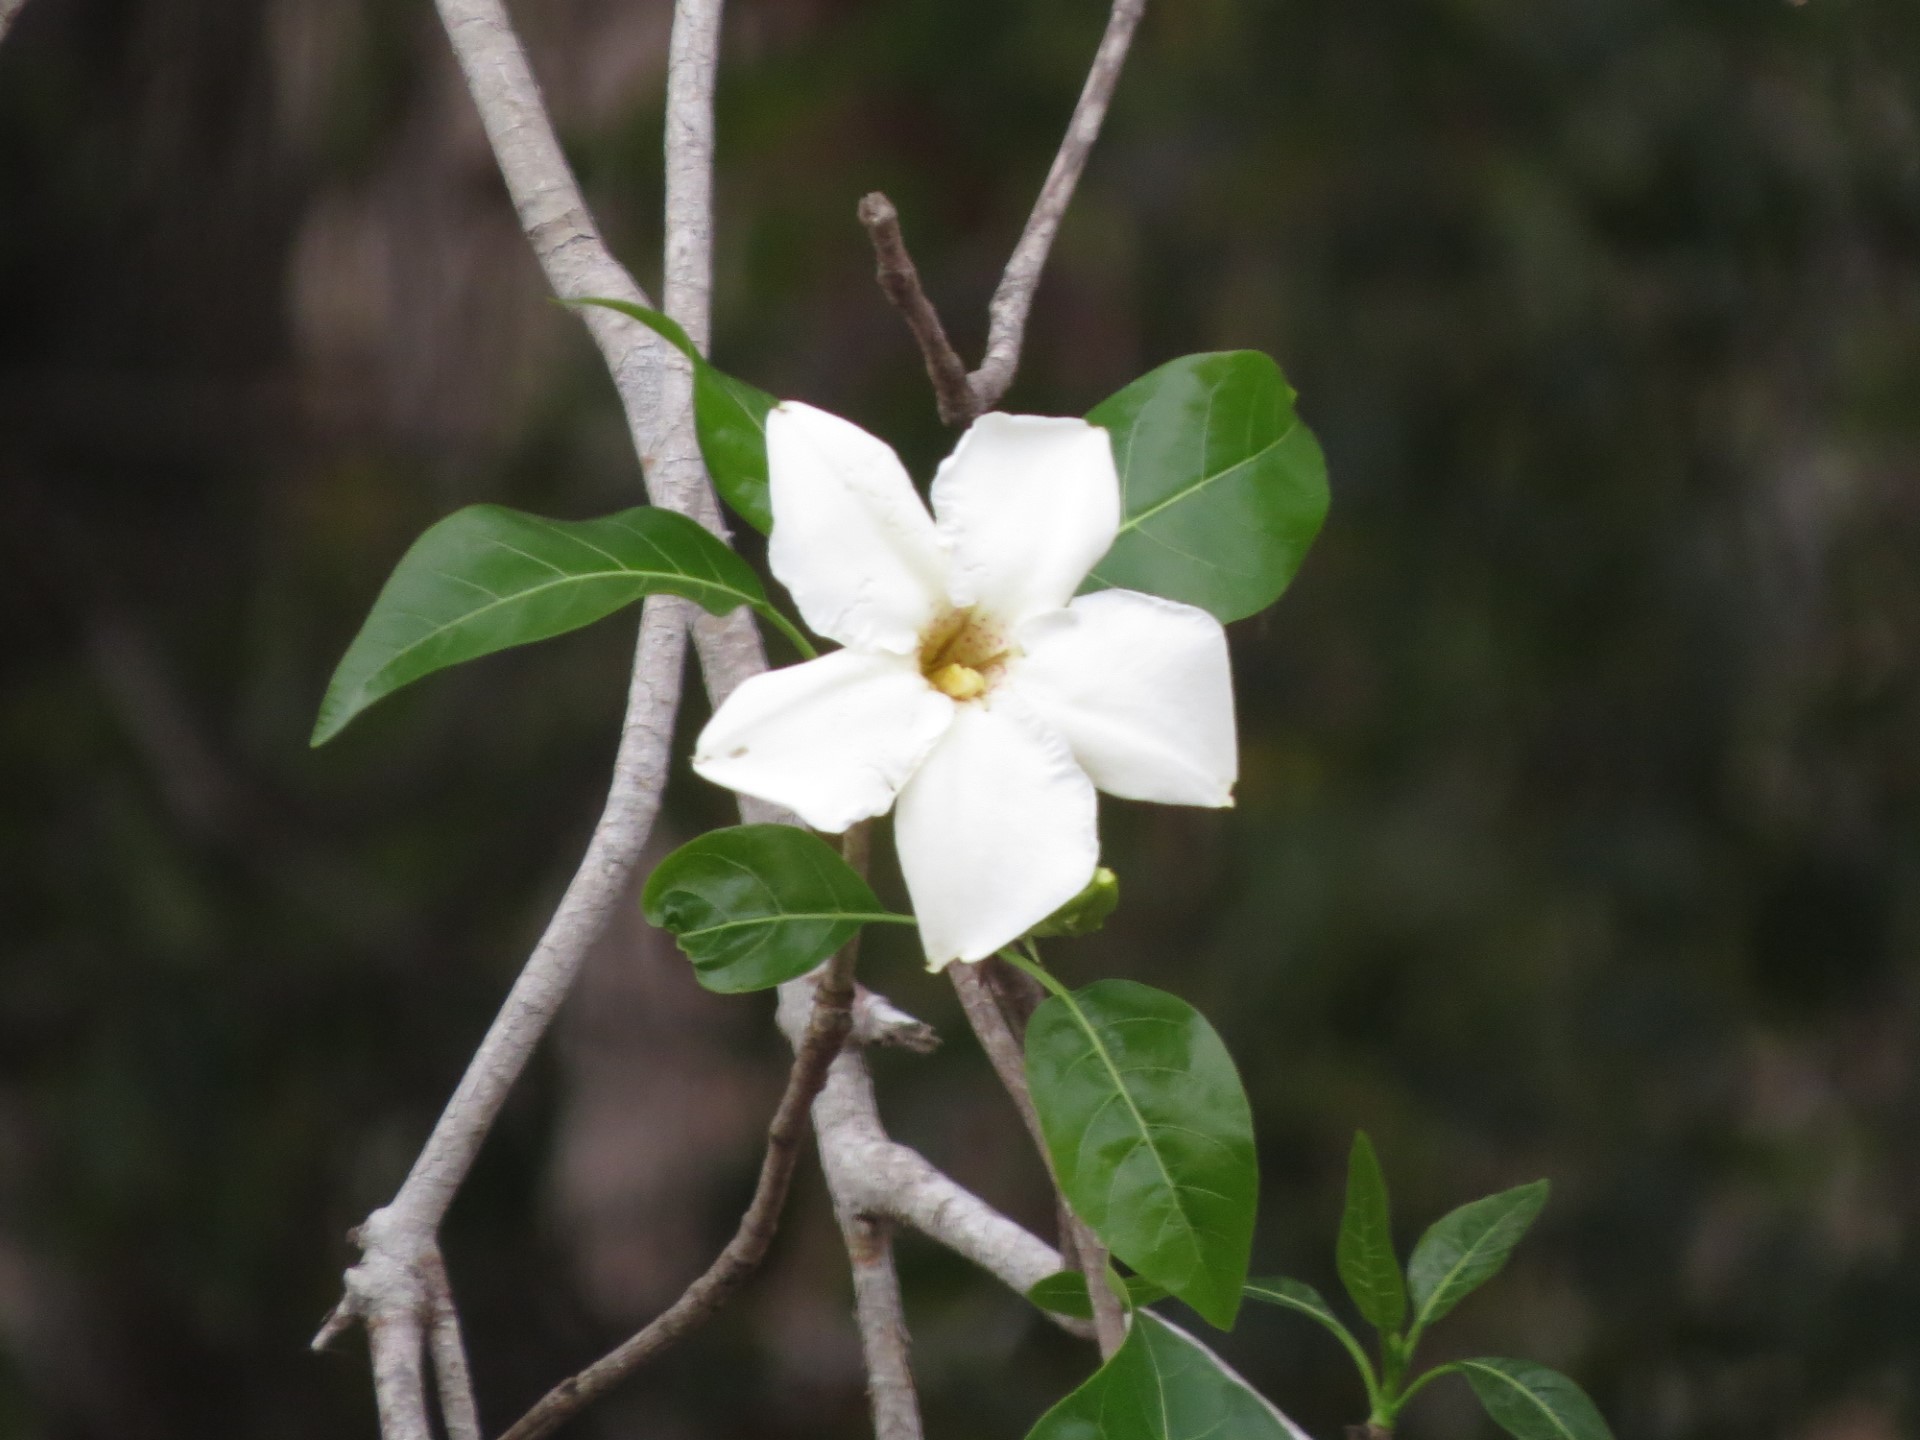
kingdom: Plantae
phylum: Tracheophyta
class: Magnoliopsida
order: Gentianales
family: Rubiaceae
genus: Melanoxerus
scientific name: Melanoxerus suavissimus
